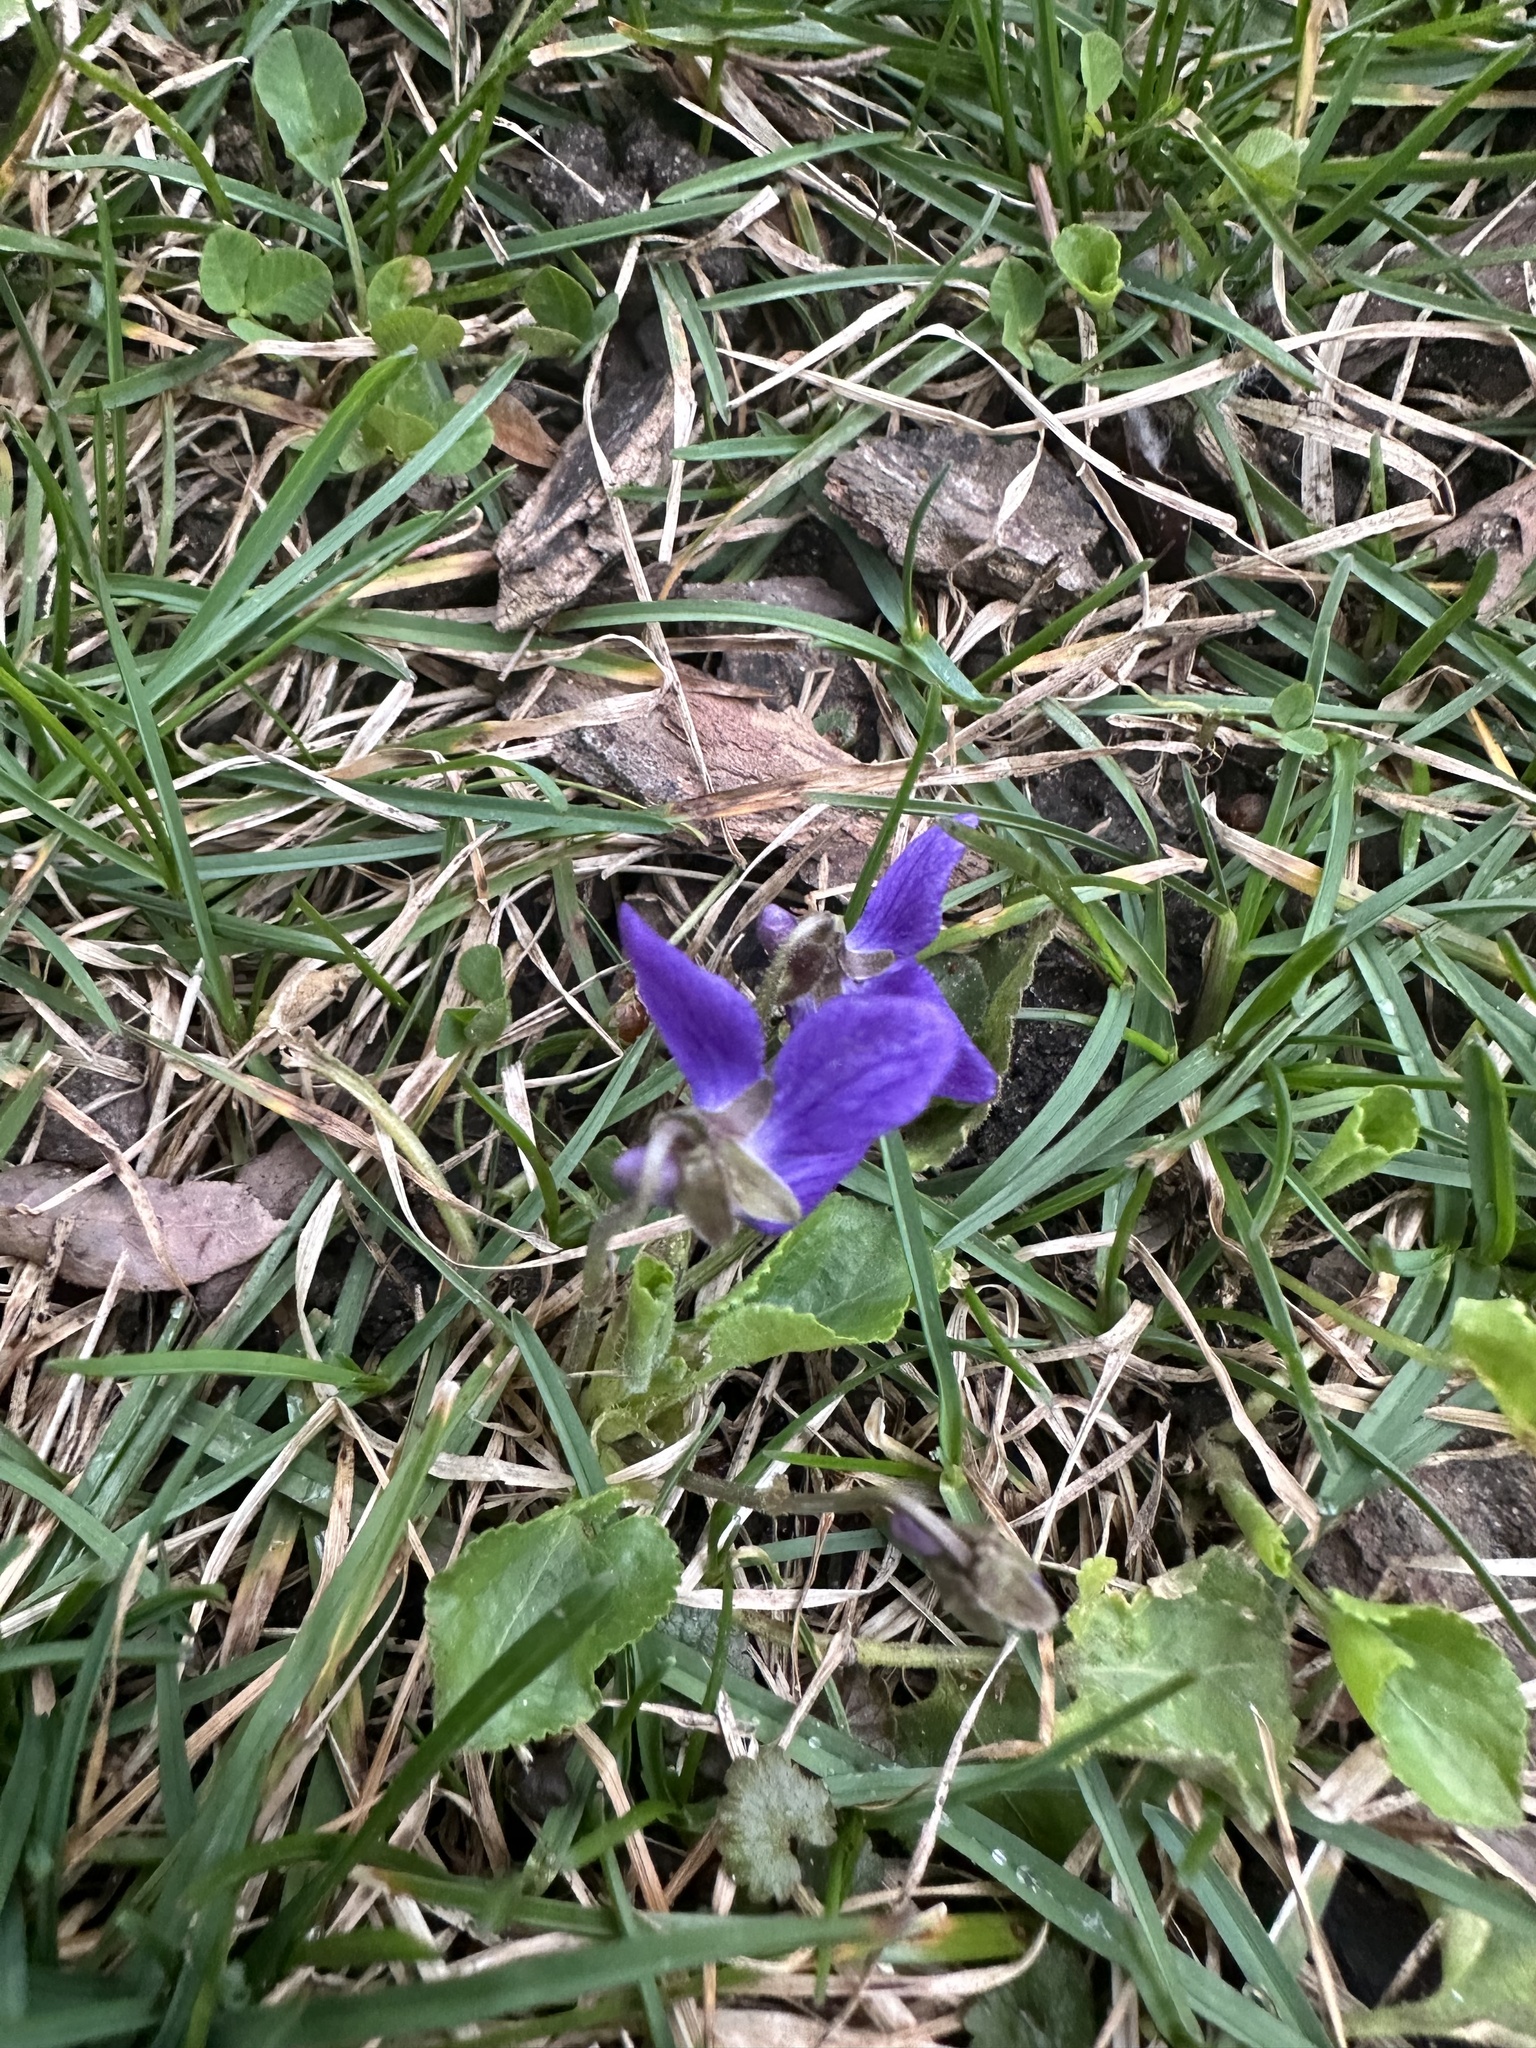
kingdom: Plantae
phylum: Tracheophyta
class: Magnoliopsida
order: Malpighiales
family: Violaceae
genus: Viola
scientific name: Viola odorata
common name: Sweet violet
